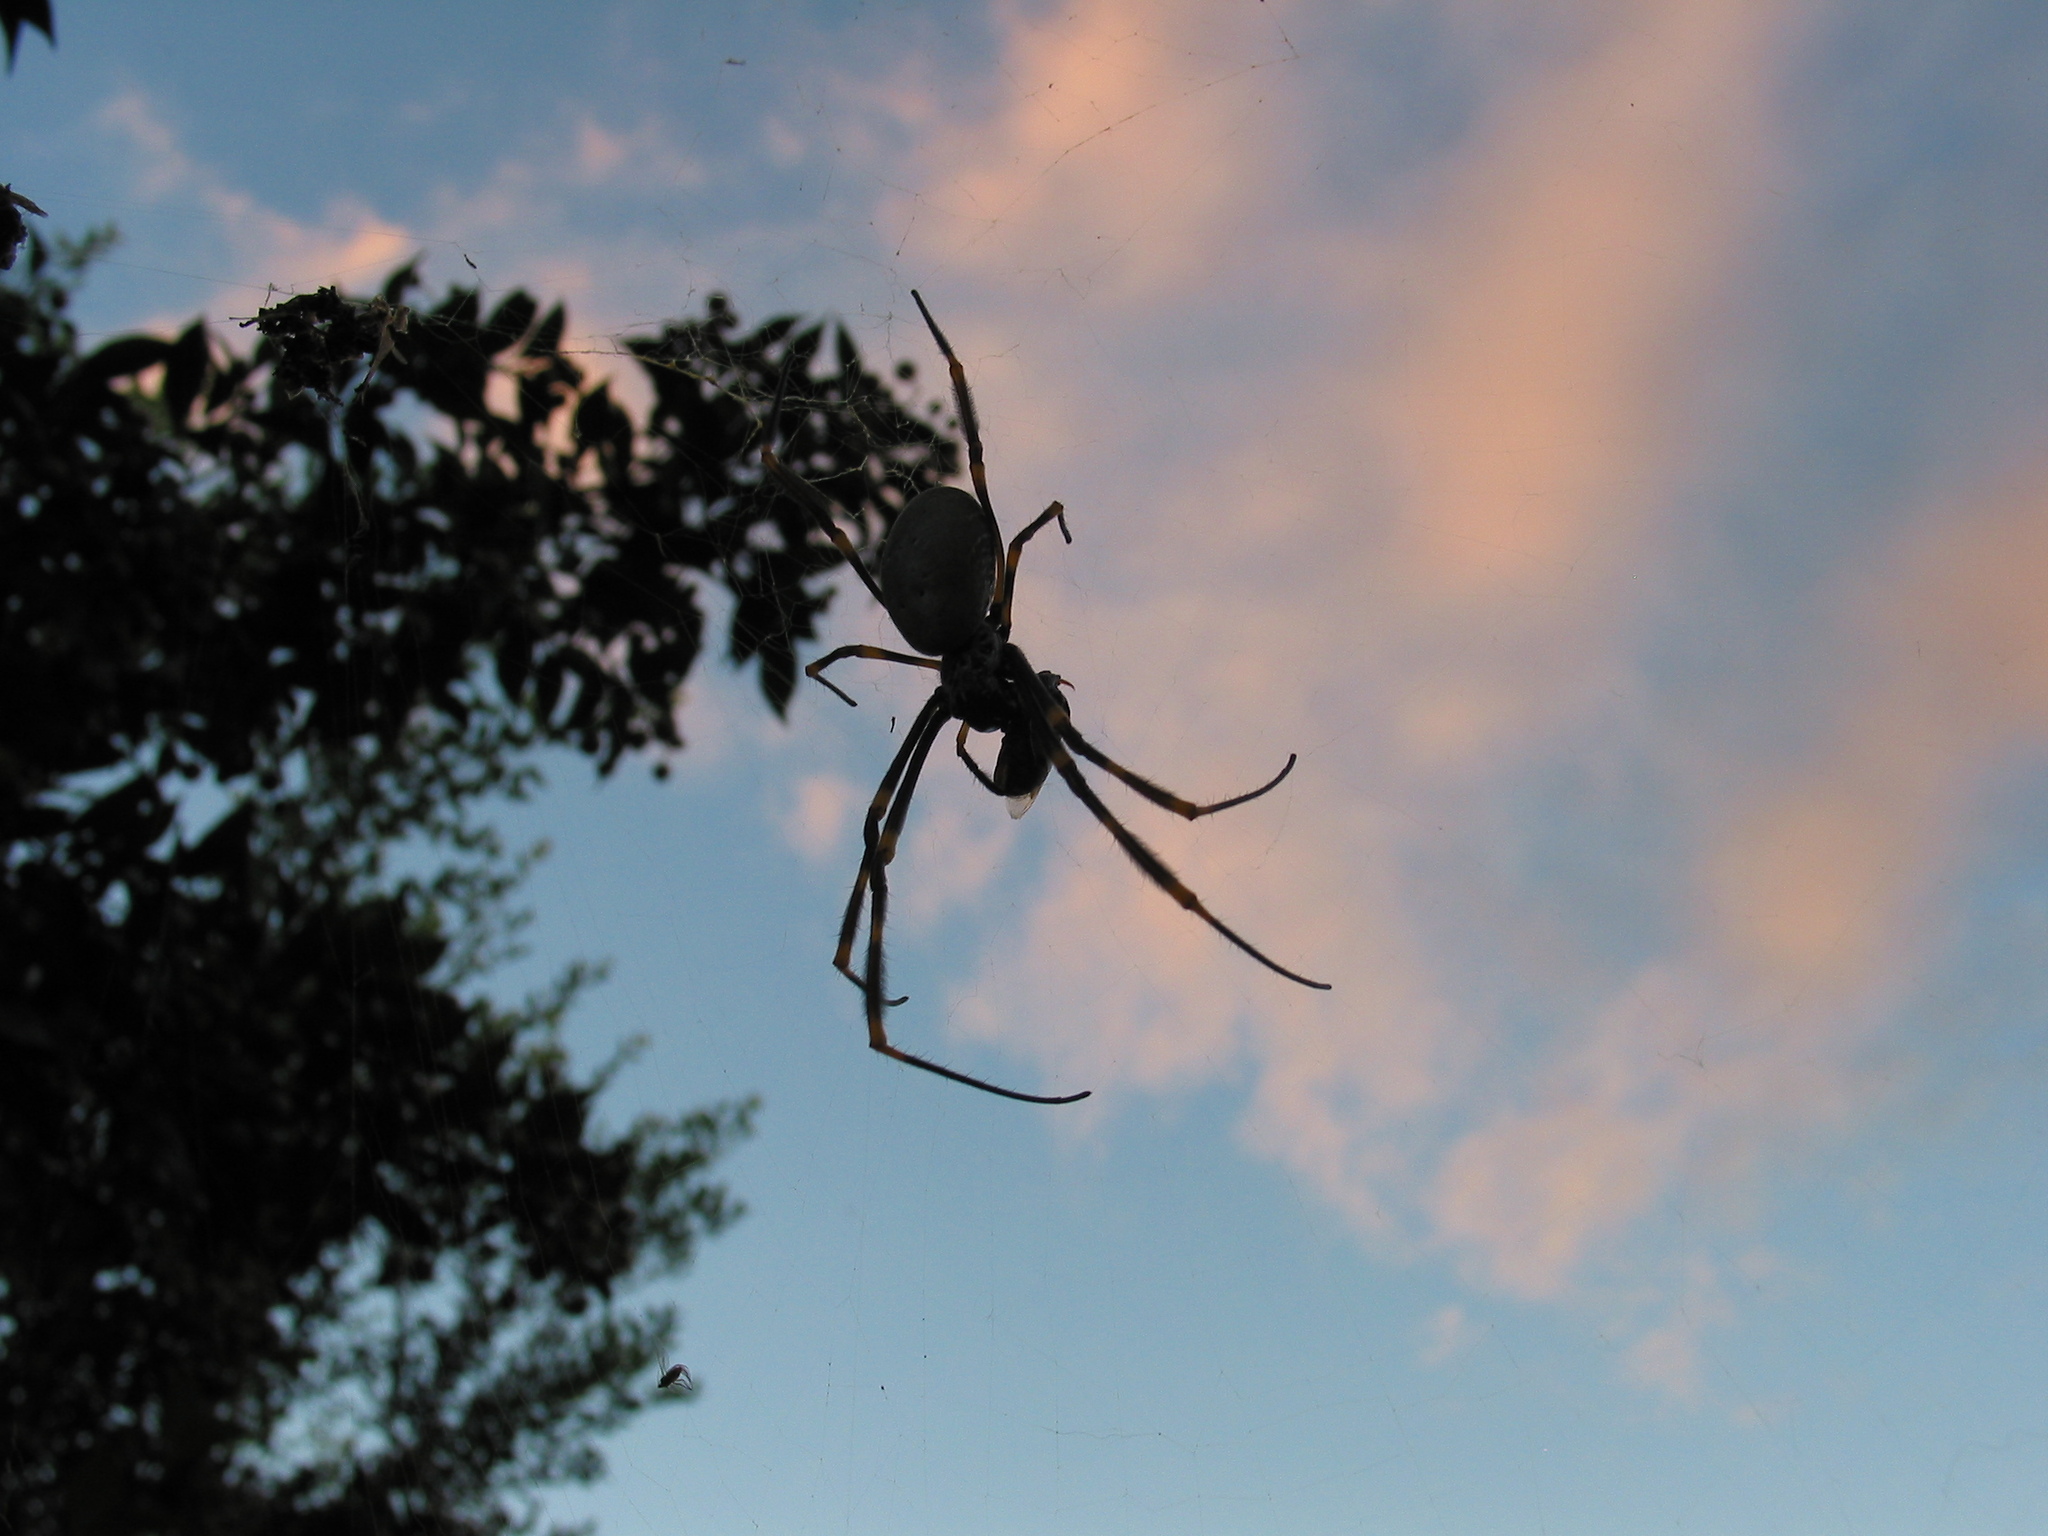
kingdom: Animalia
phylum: Arthropoda
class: Arachnida
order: Araneae
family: Araneidae
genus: Trichonephila
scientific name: Trichonephila plumipes
